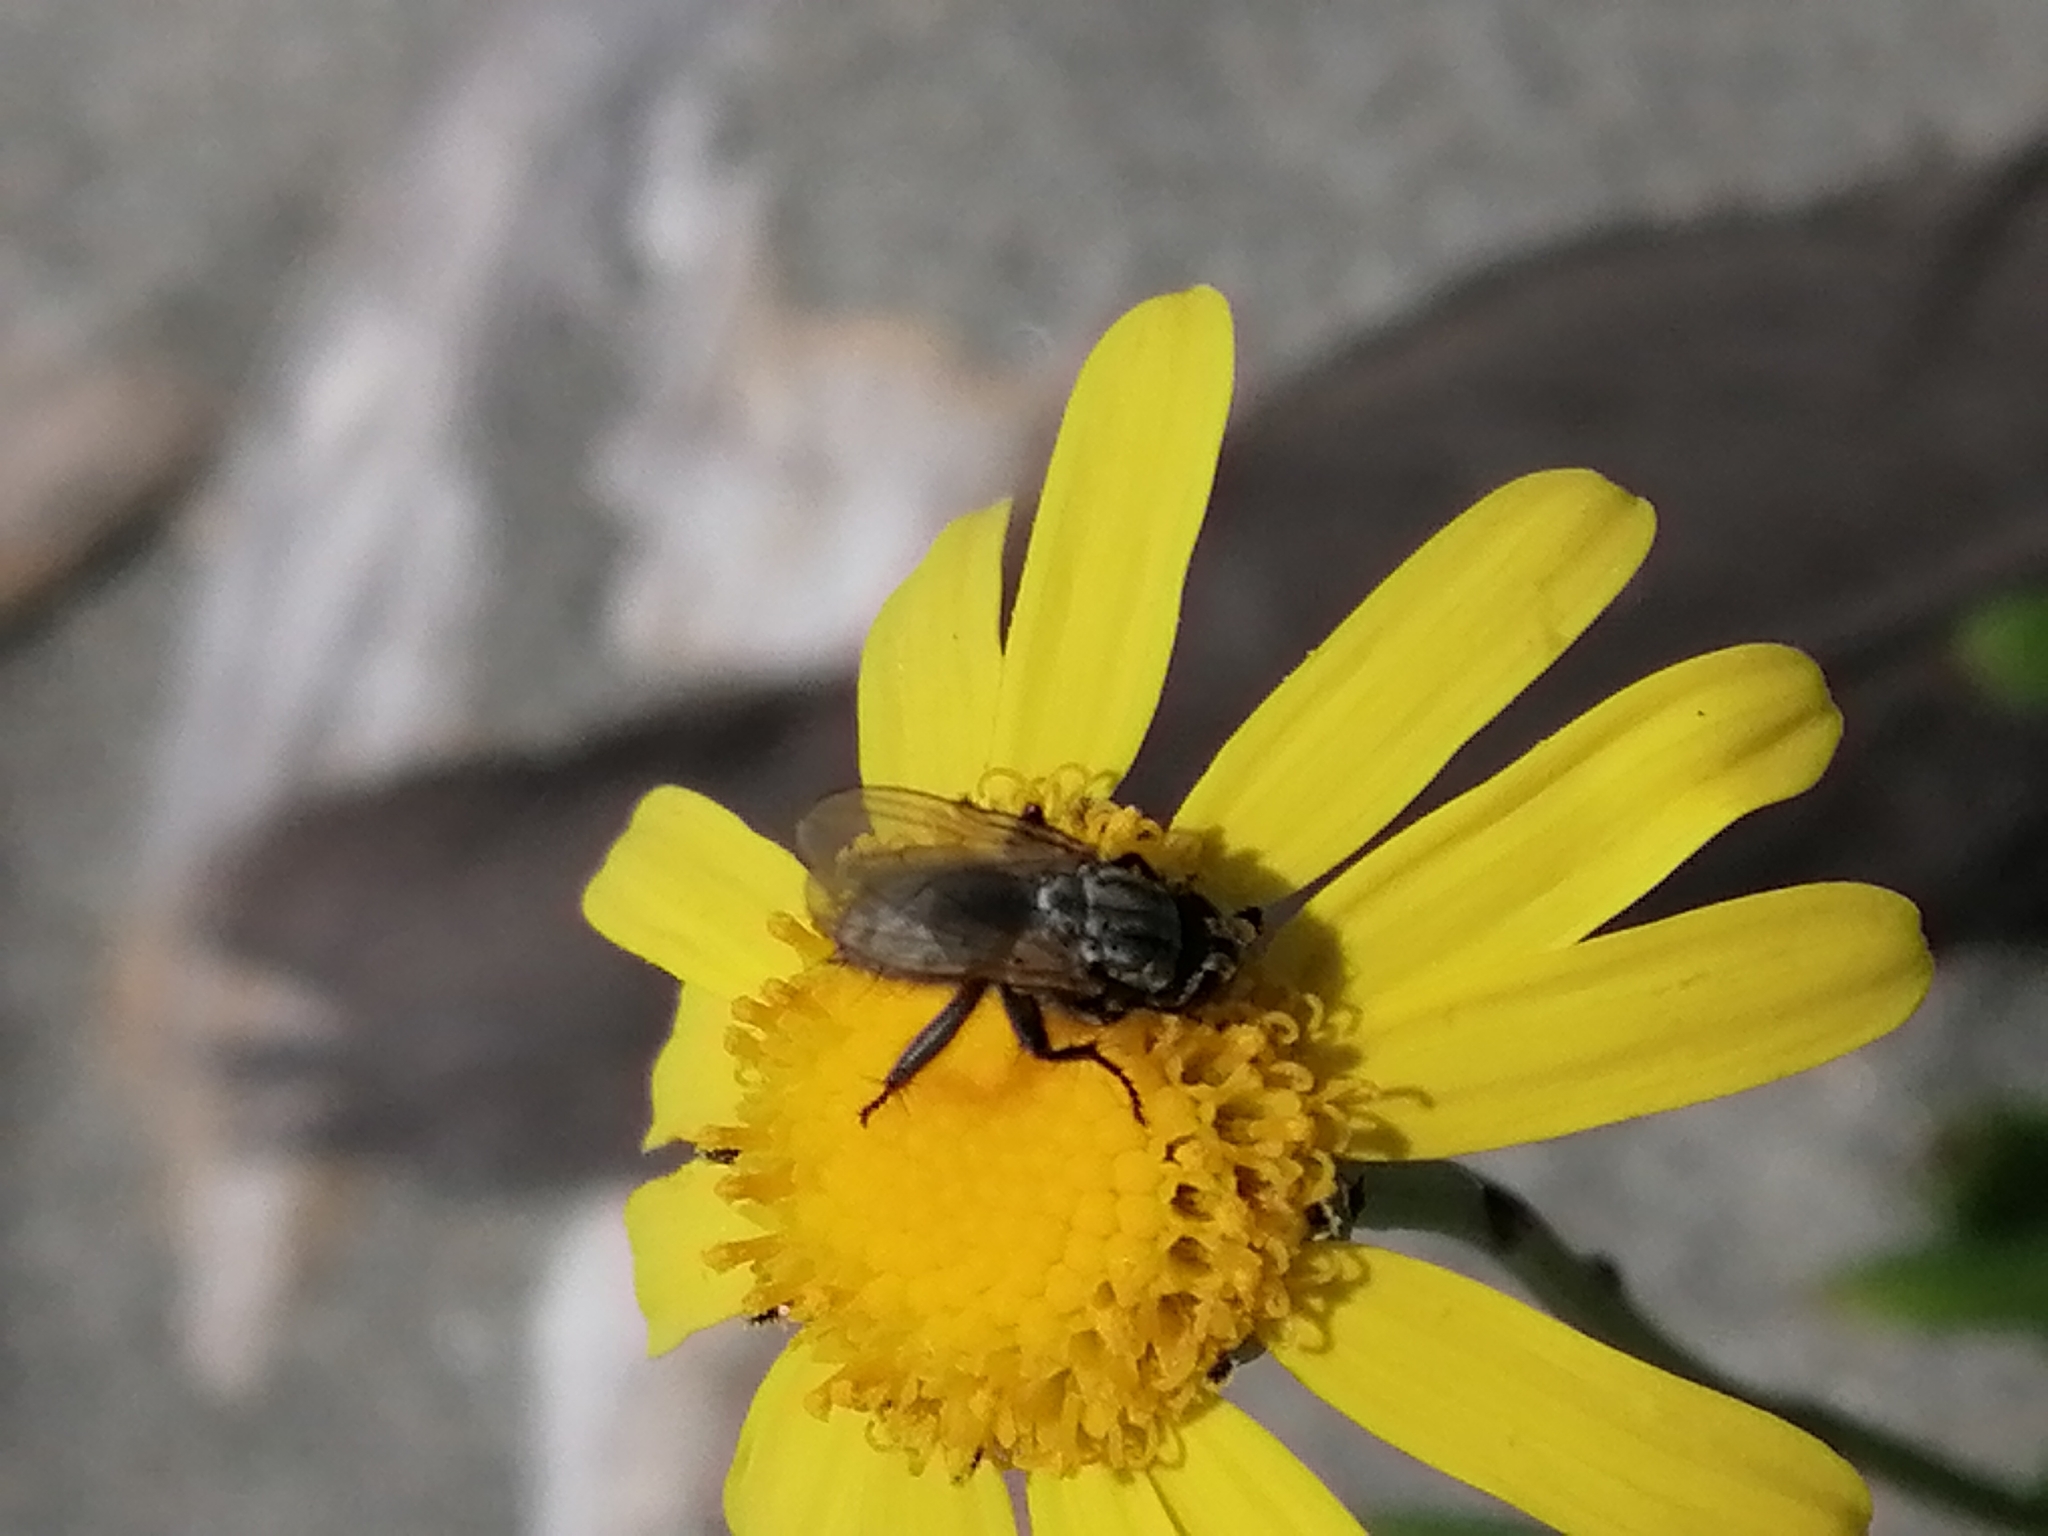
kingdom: Plantae
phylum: Tracheophyta
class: Magnoliopsida
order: Asterales
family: Asteraceae
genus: Senecio
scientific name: Senecio skirrhodon
